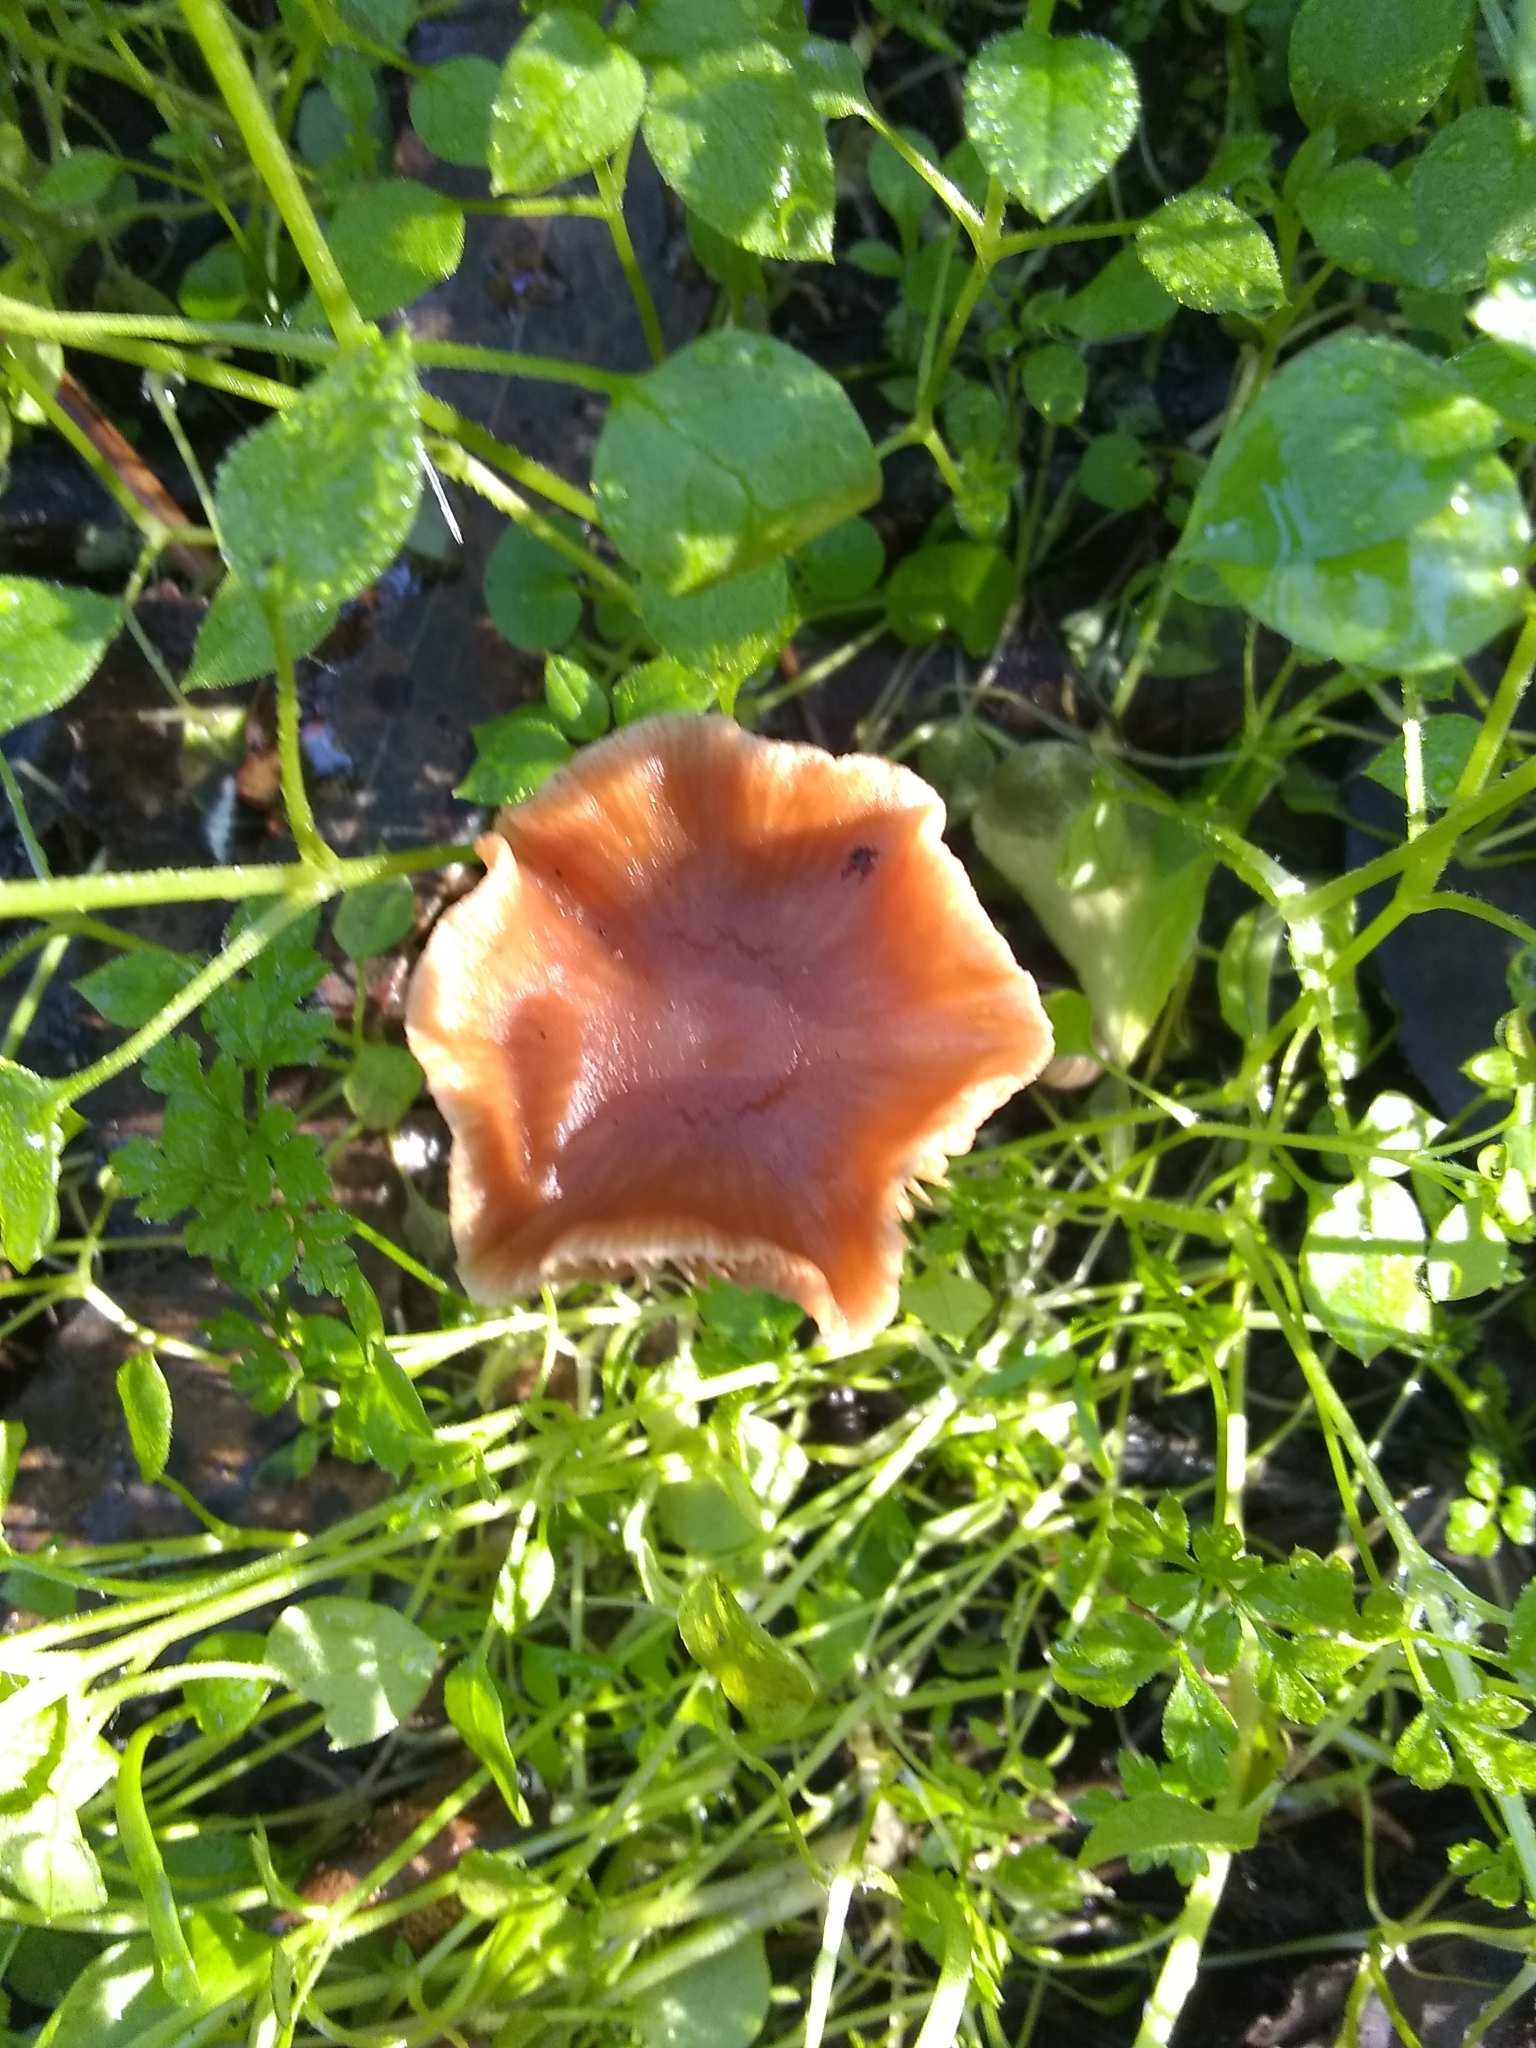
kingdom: Fungi
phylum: Basidiomycota
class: Agaricomycetes
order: Agaricales
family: Tubariaceae
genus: Tubaria
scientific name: Tubaria furfuracea
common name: Scurfy twiglet
